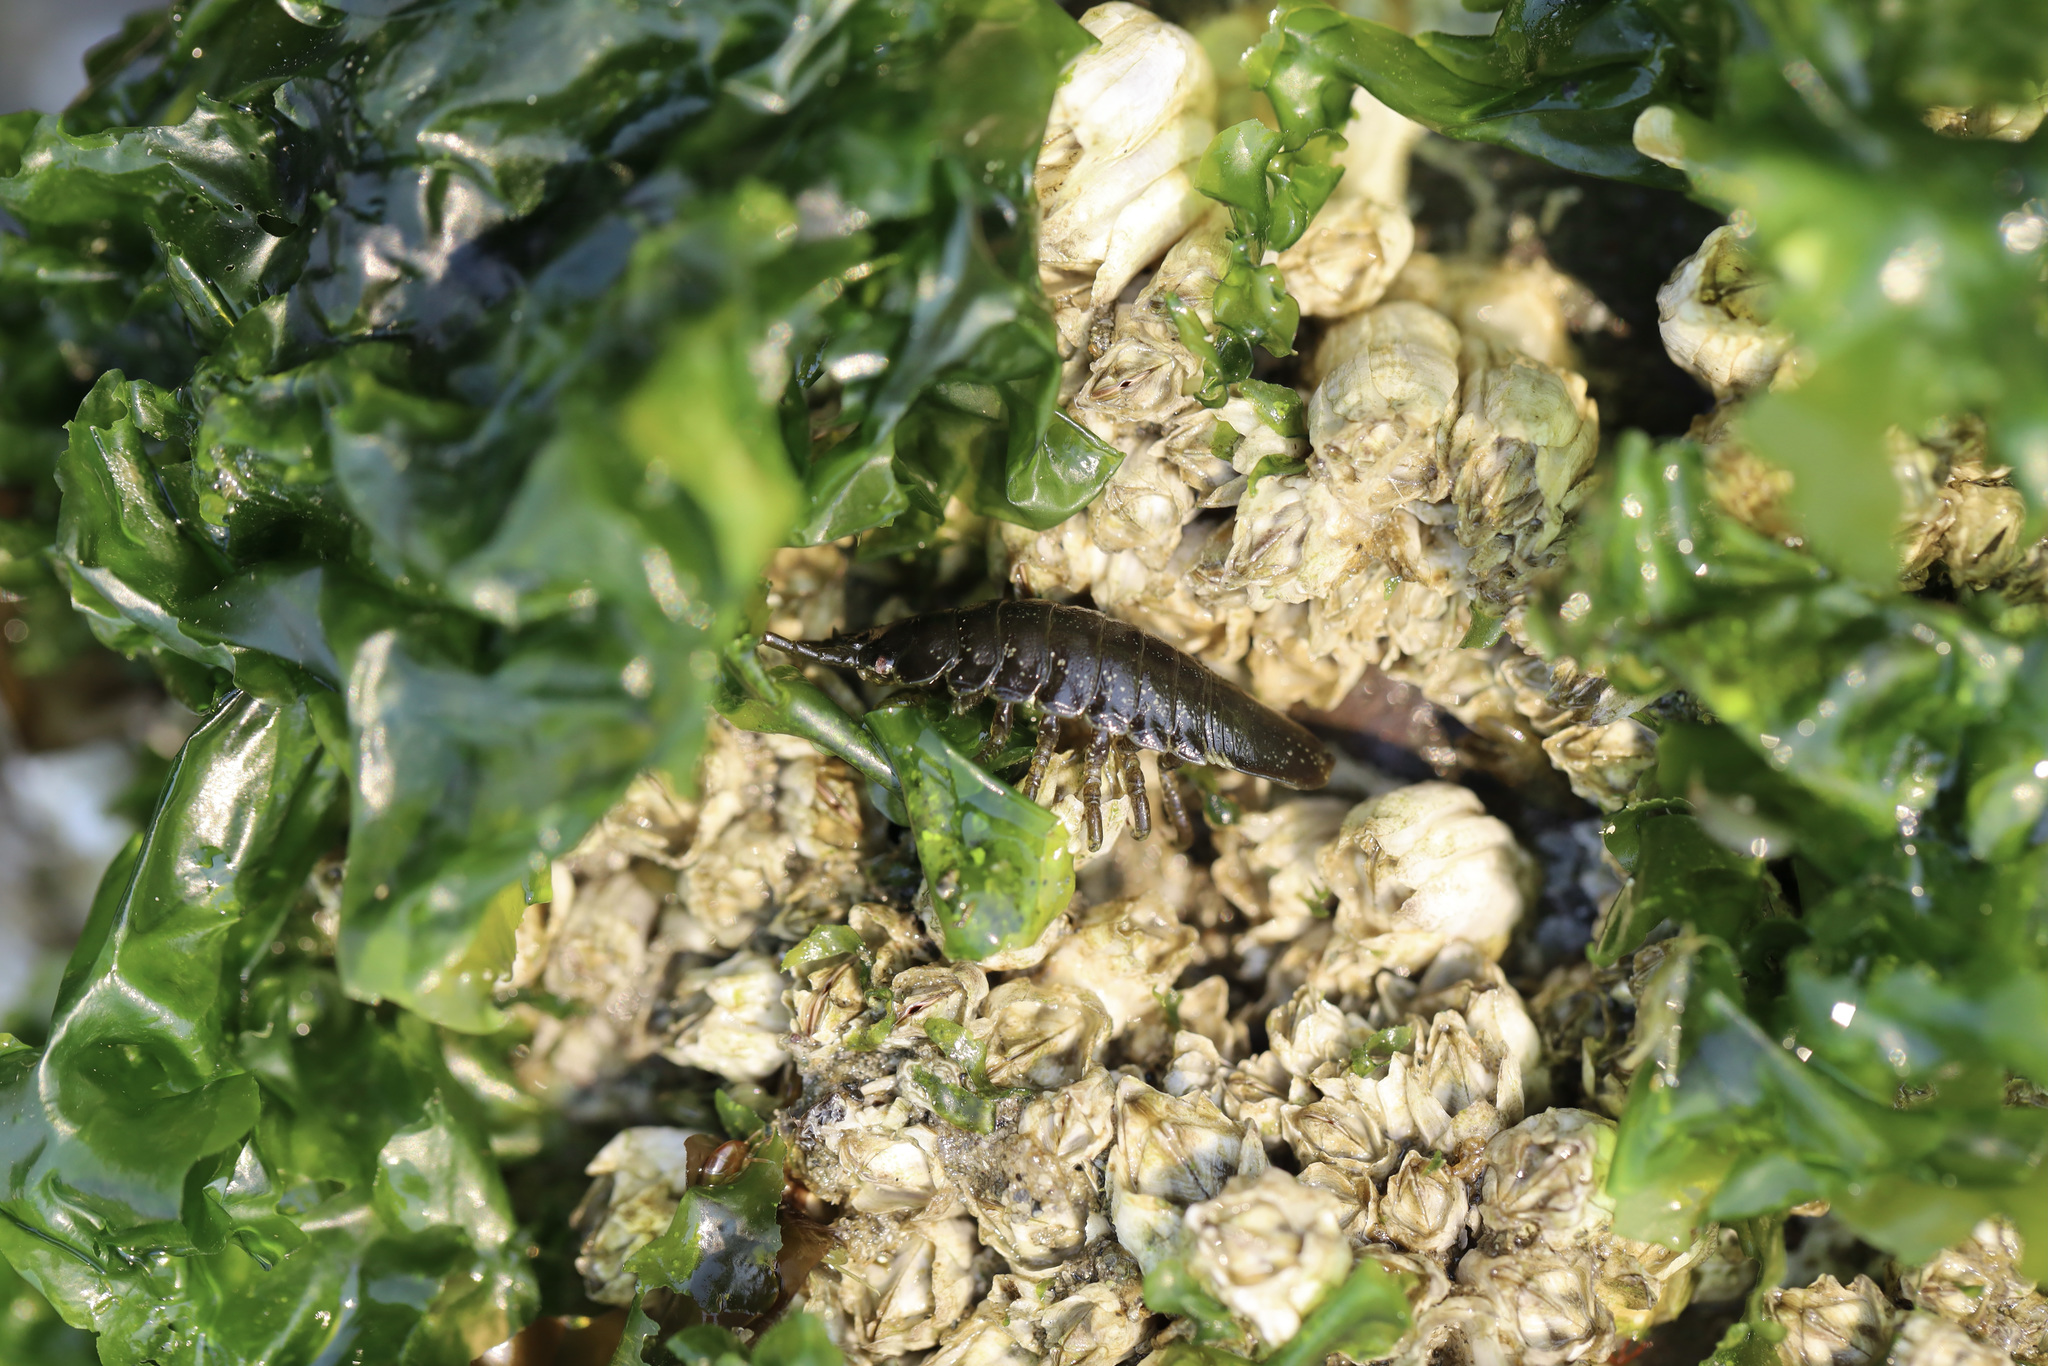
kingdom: Animalia
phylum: Arthropoda
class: Malacostraca
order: Isopoda
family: Idoteidae
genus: Pentidotea
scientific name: Pentidotea wosnesenskii
